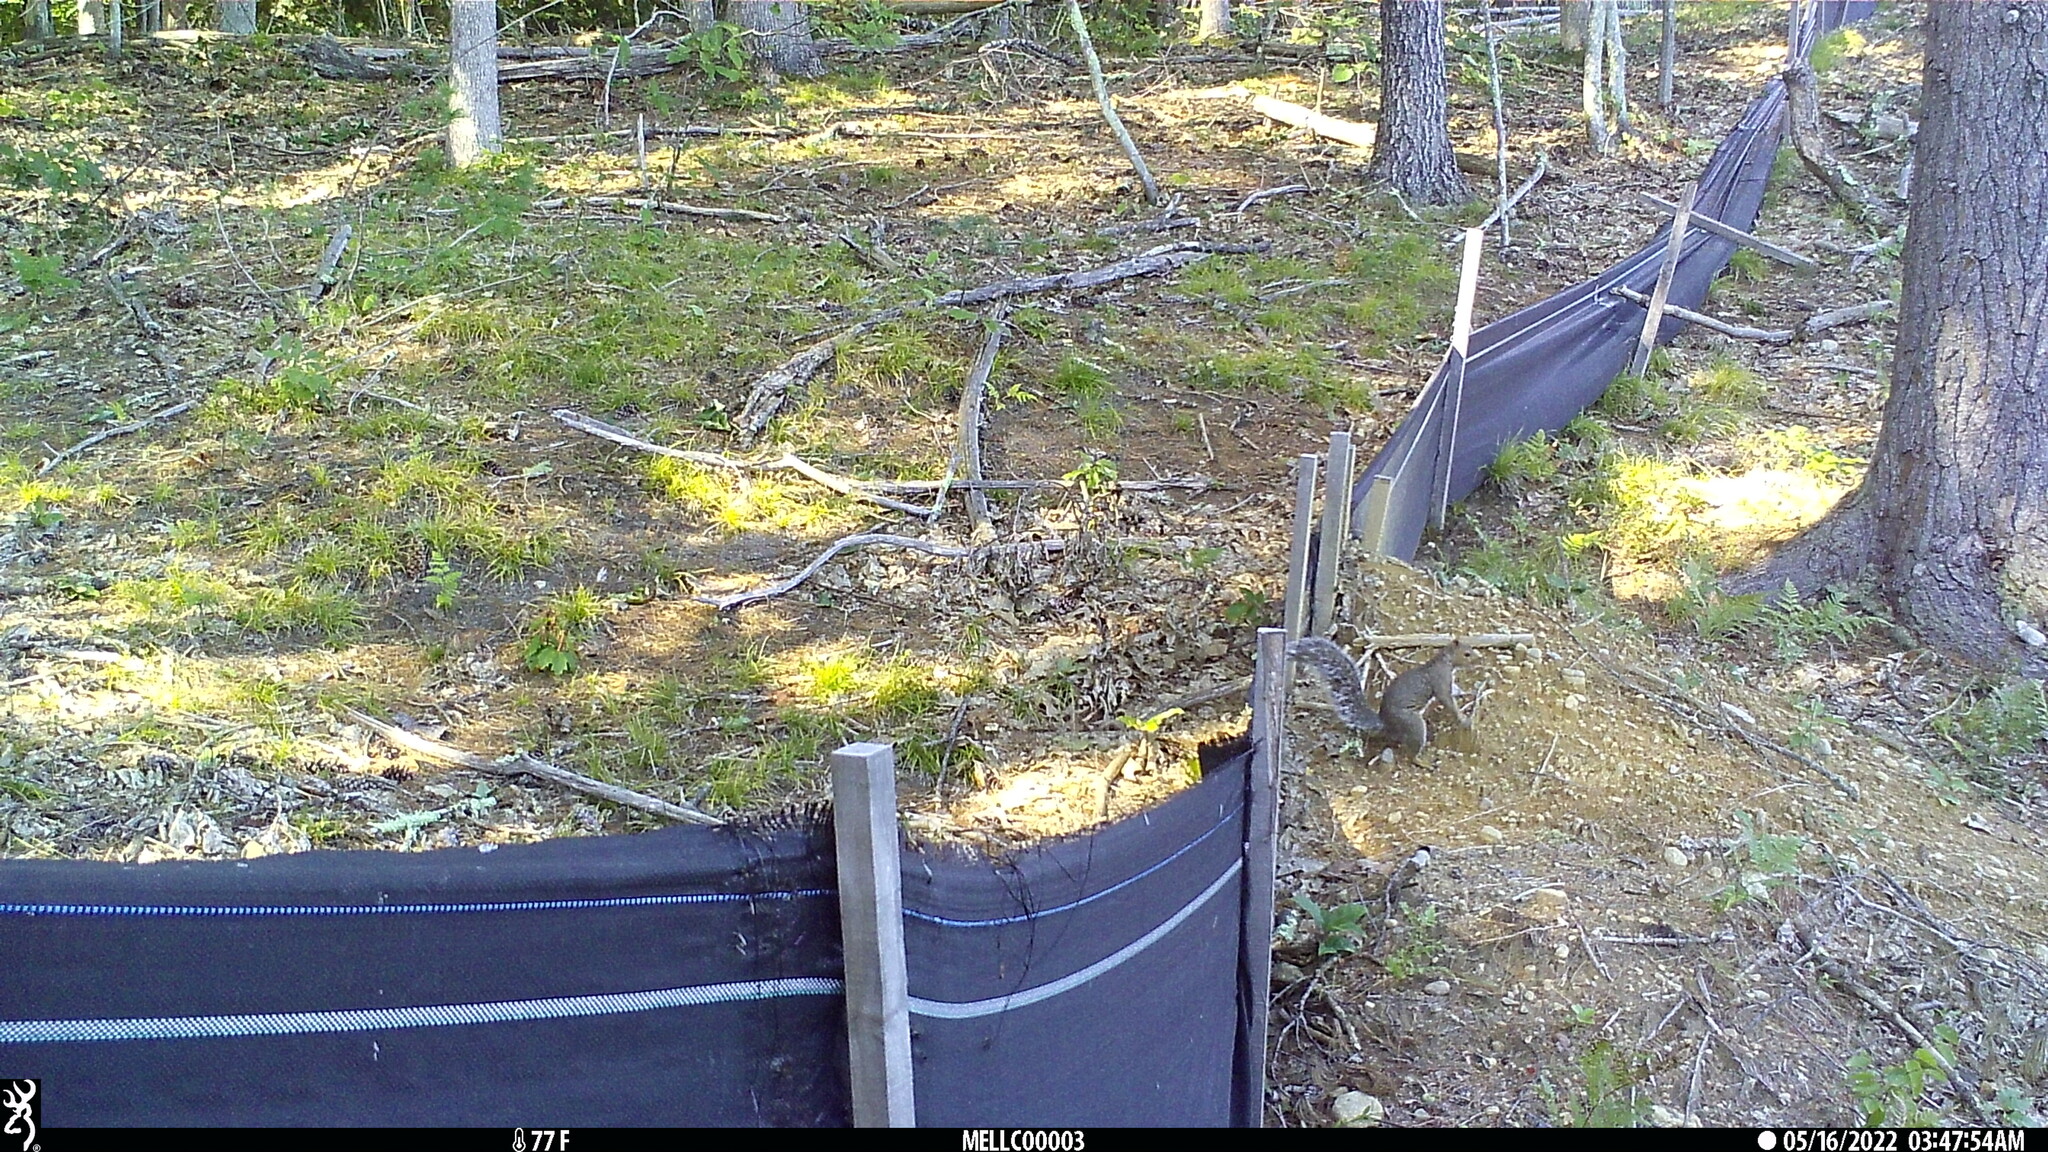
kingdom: Animalia
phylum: Chordata
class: Mammalia
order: Rodentia
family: Sciuridae
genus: Sciurus
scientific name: Sciurus carolinensis
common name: Eastern gray squirrel
